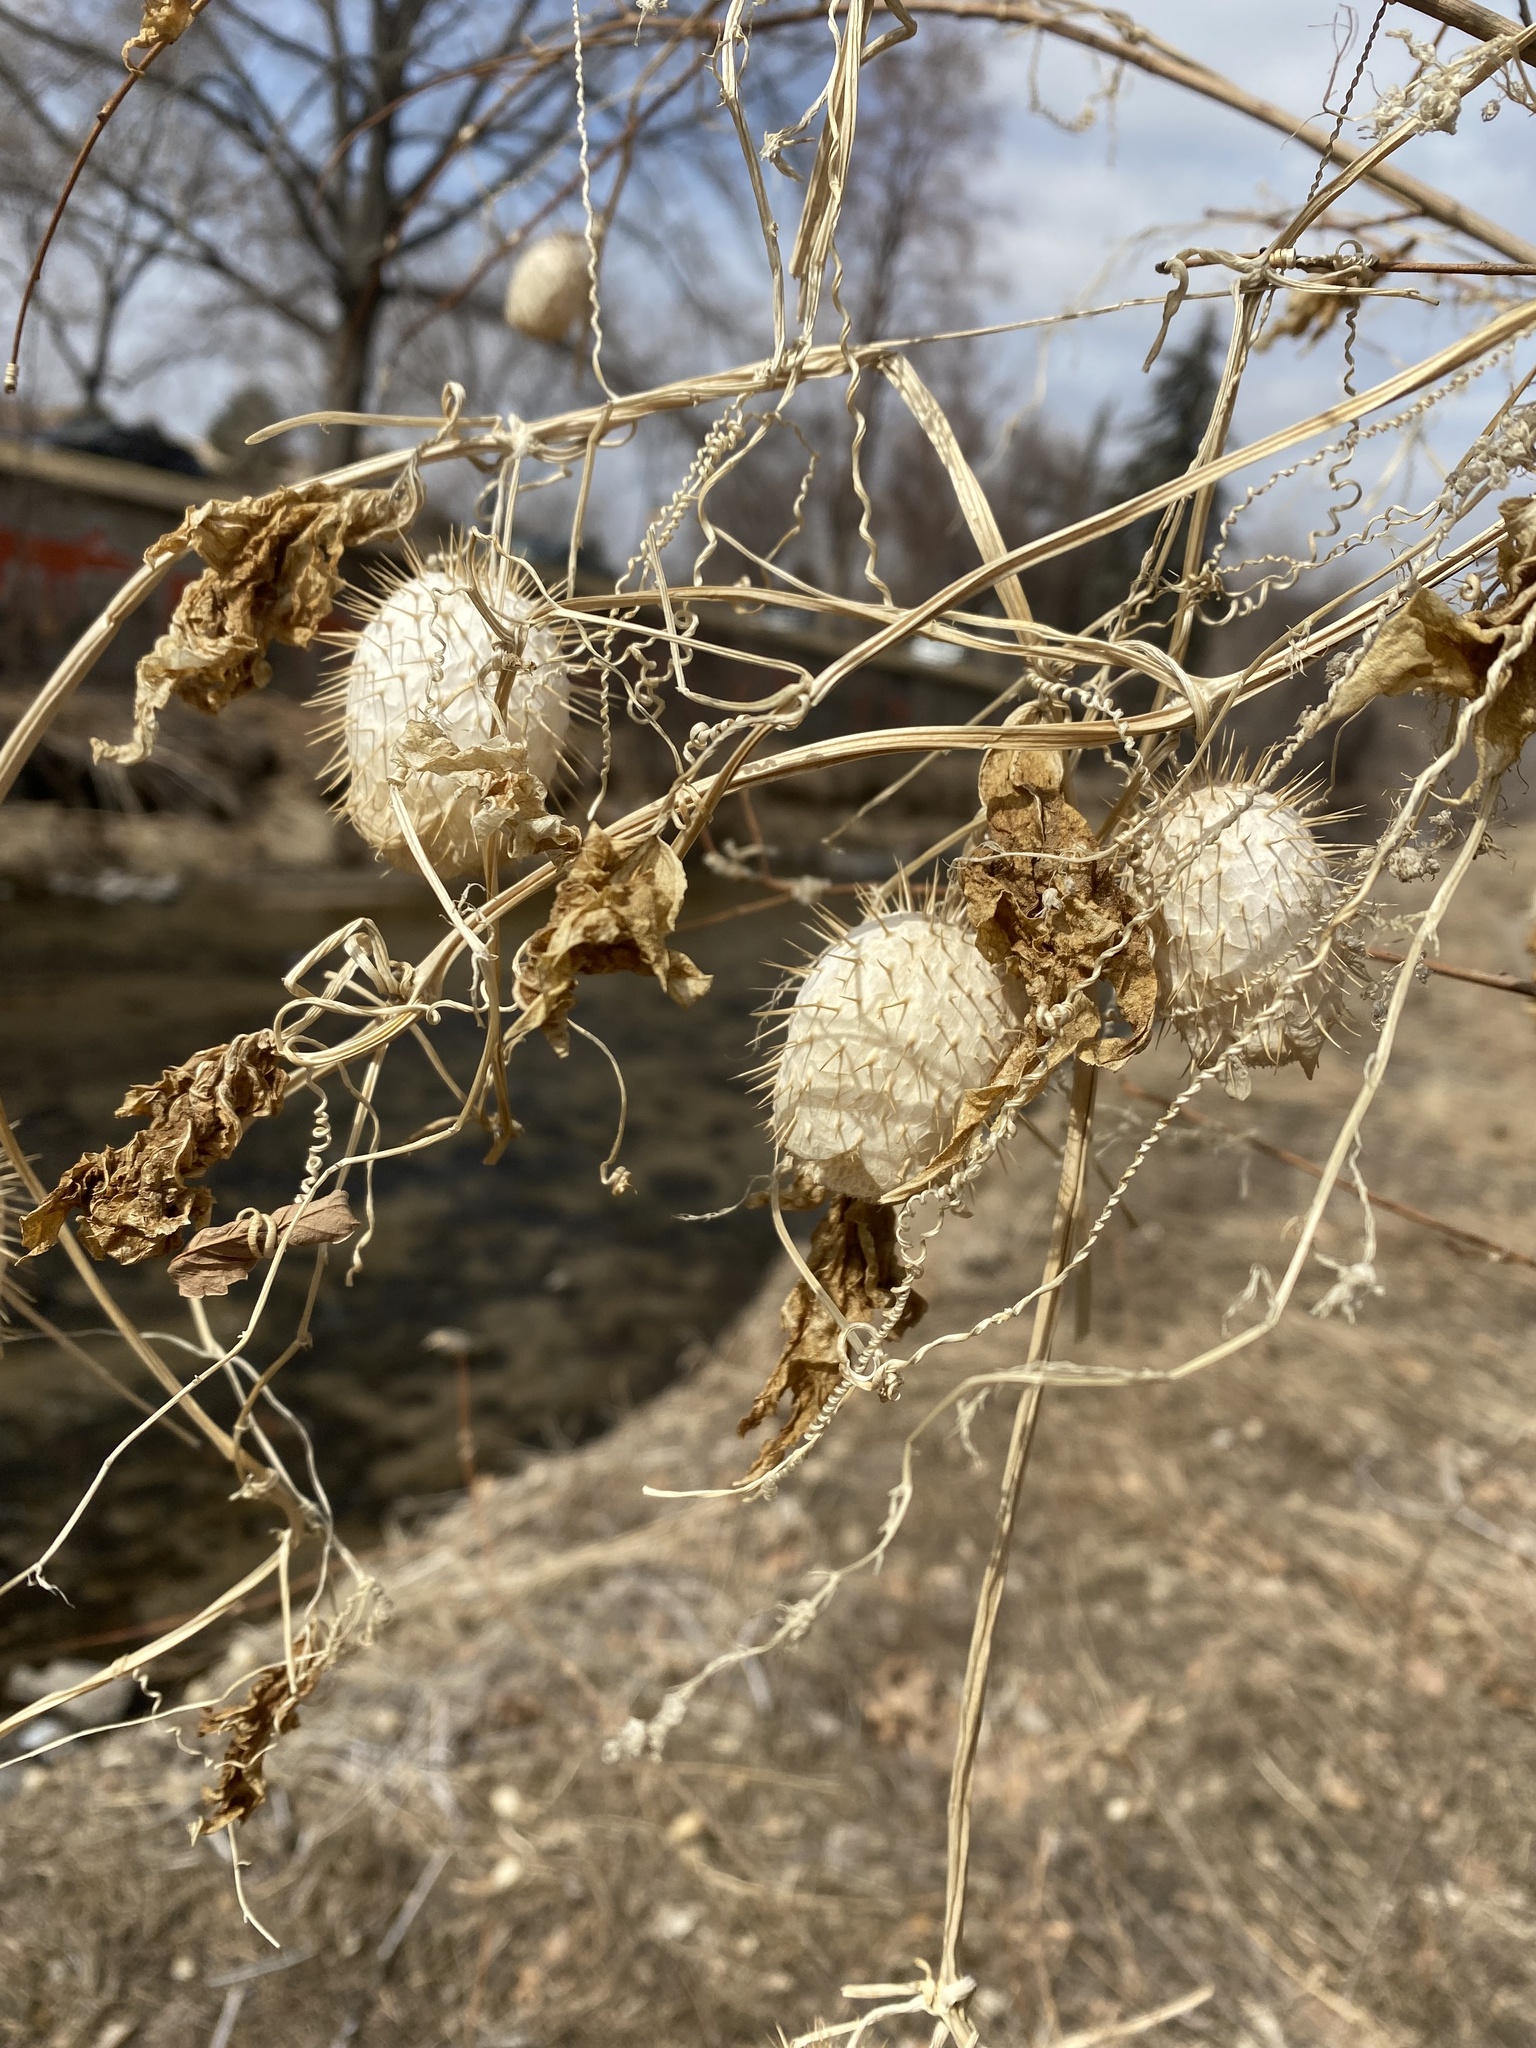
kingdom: Plantae
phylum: Tracheophyta
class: Magnoliopsida
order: Cucurbitales
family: Cucurbitaceae
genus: Echinocystis
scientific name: Echinocystis lobata
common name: Wild cucumber
